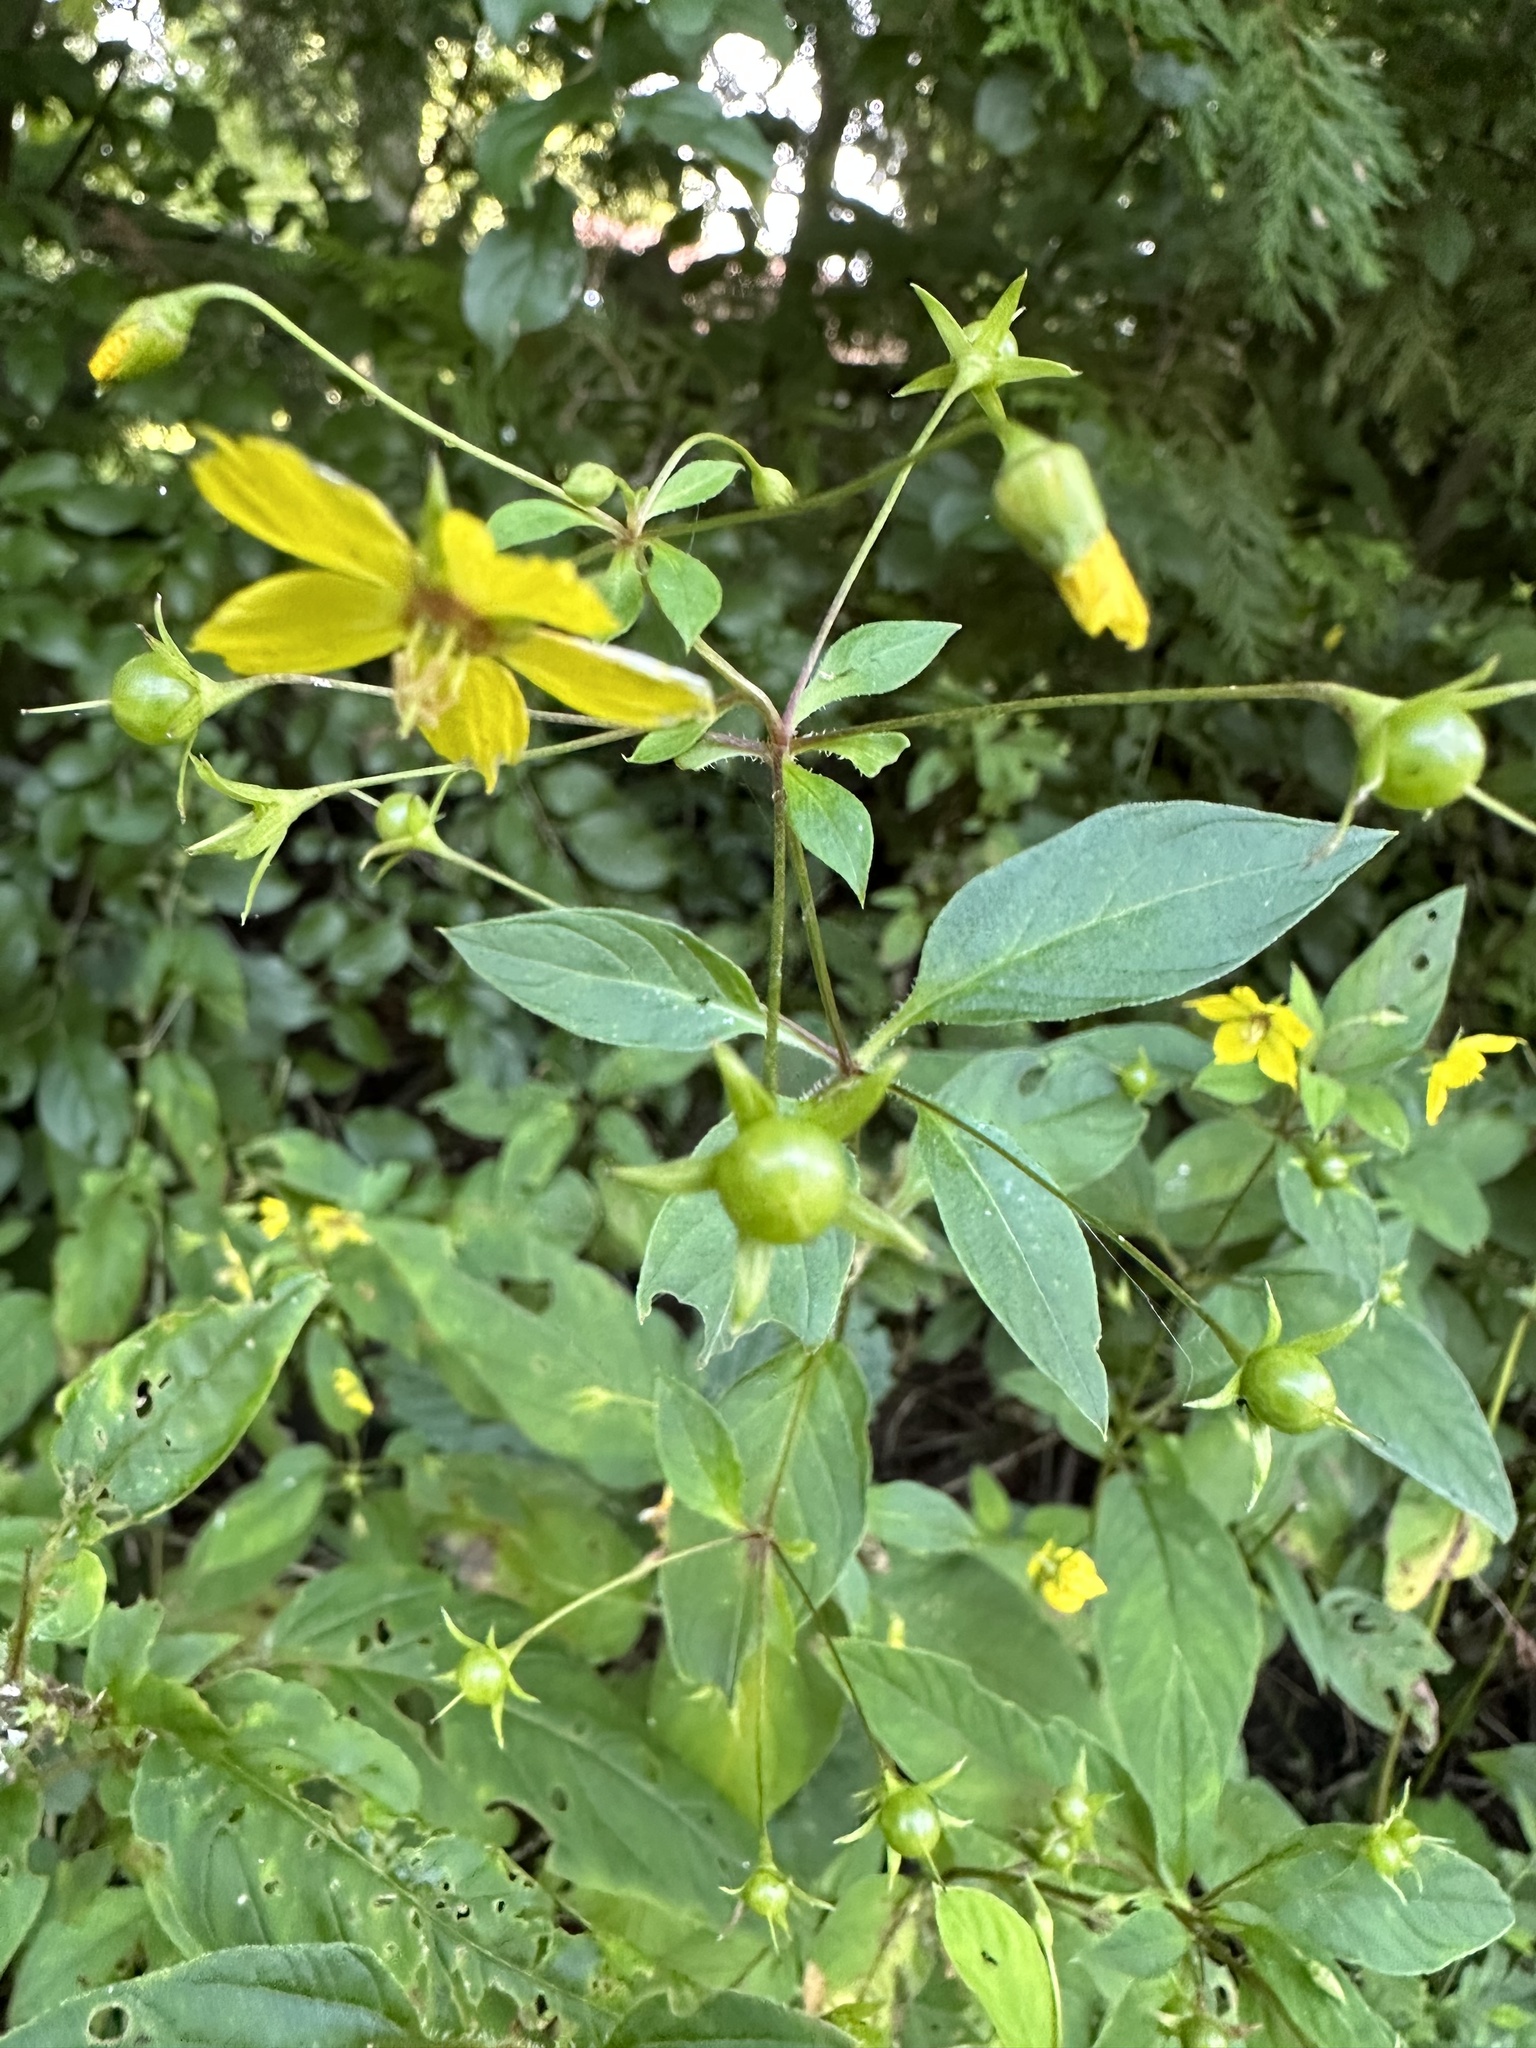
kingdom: Plantae
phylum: Tracheophyta
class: Magnoliopsida
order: Ericales
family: Primulaceae
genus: Lysimachia
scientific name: Lysimachia ciliata
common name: Fringed loosestrife
